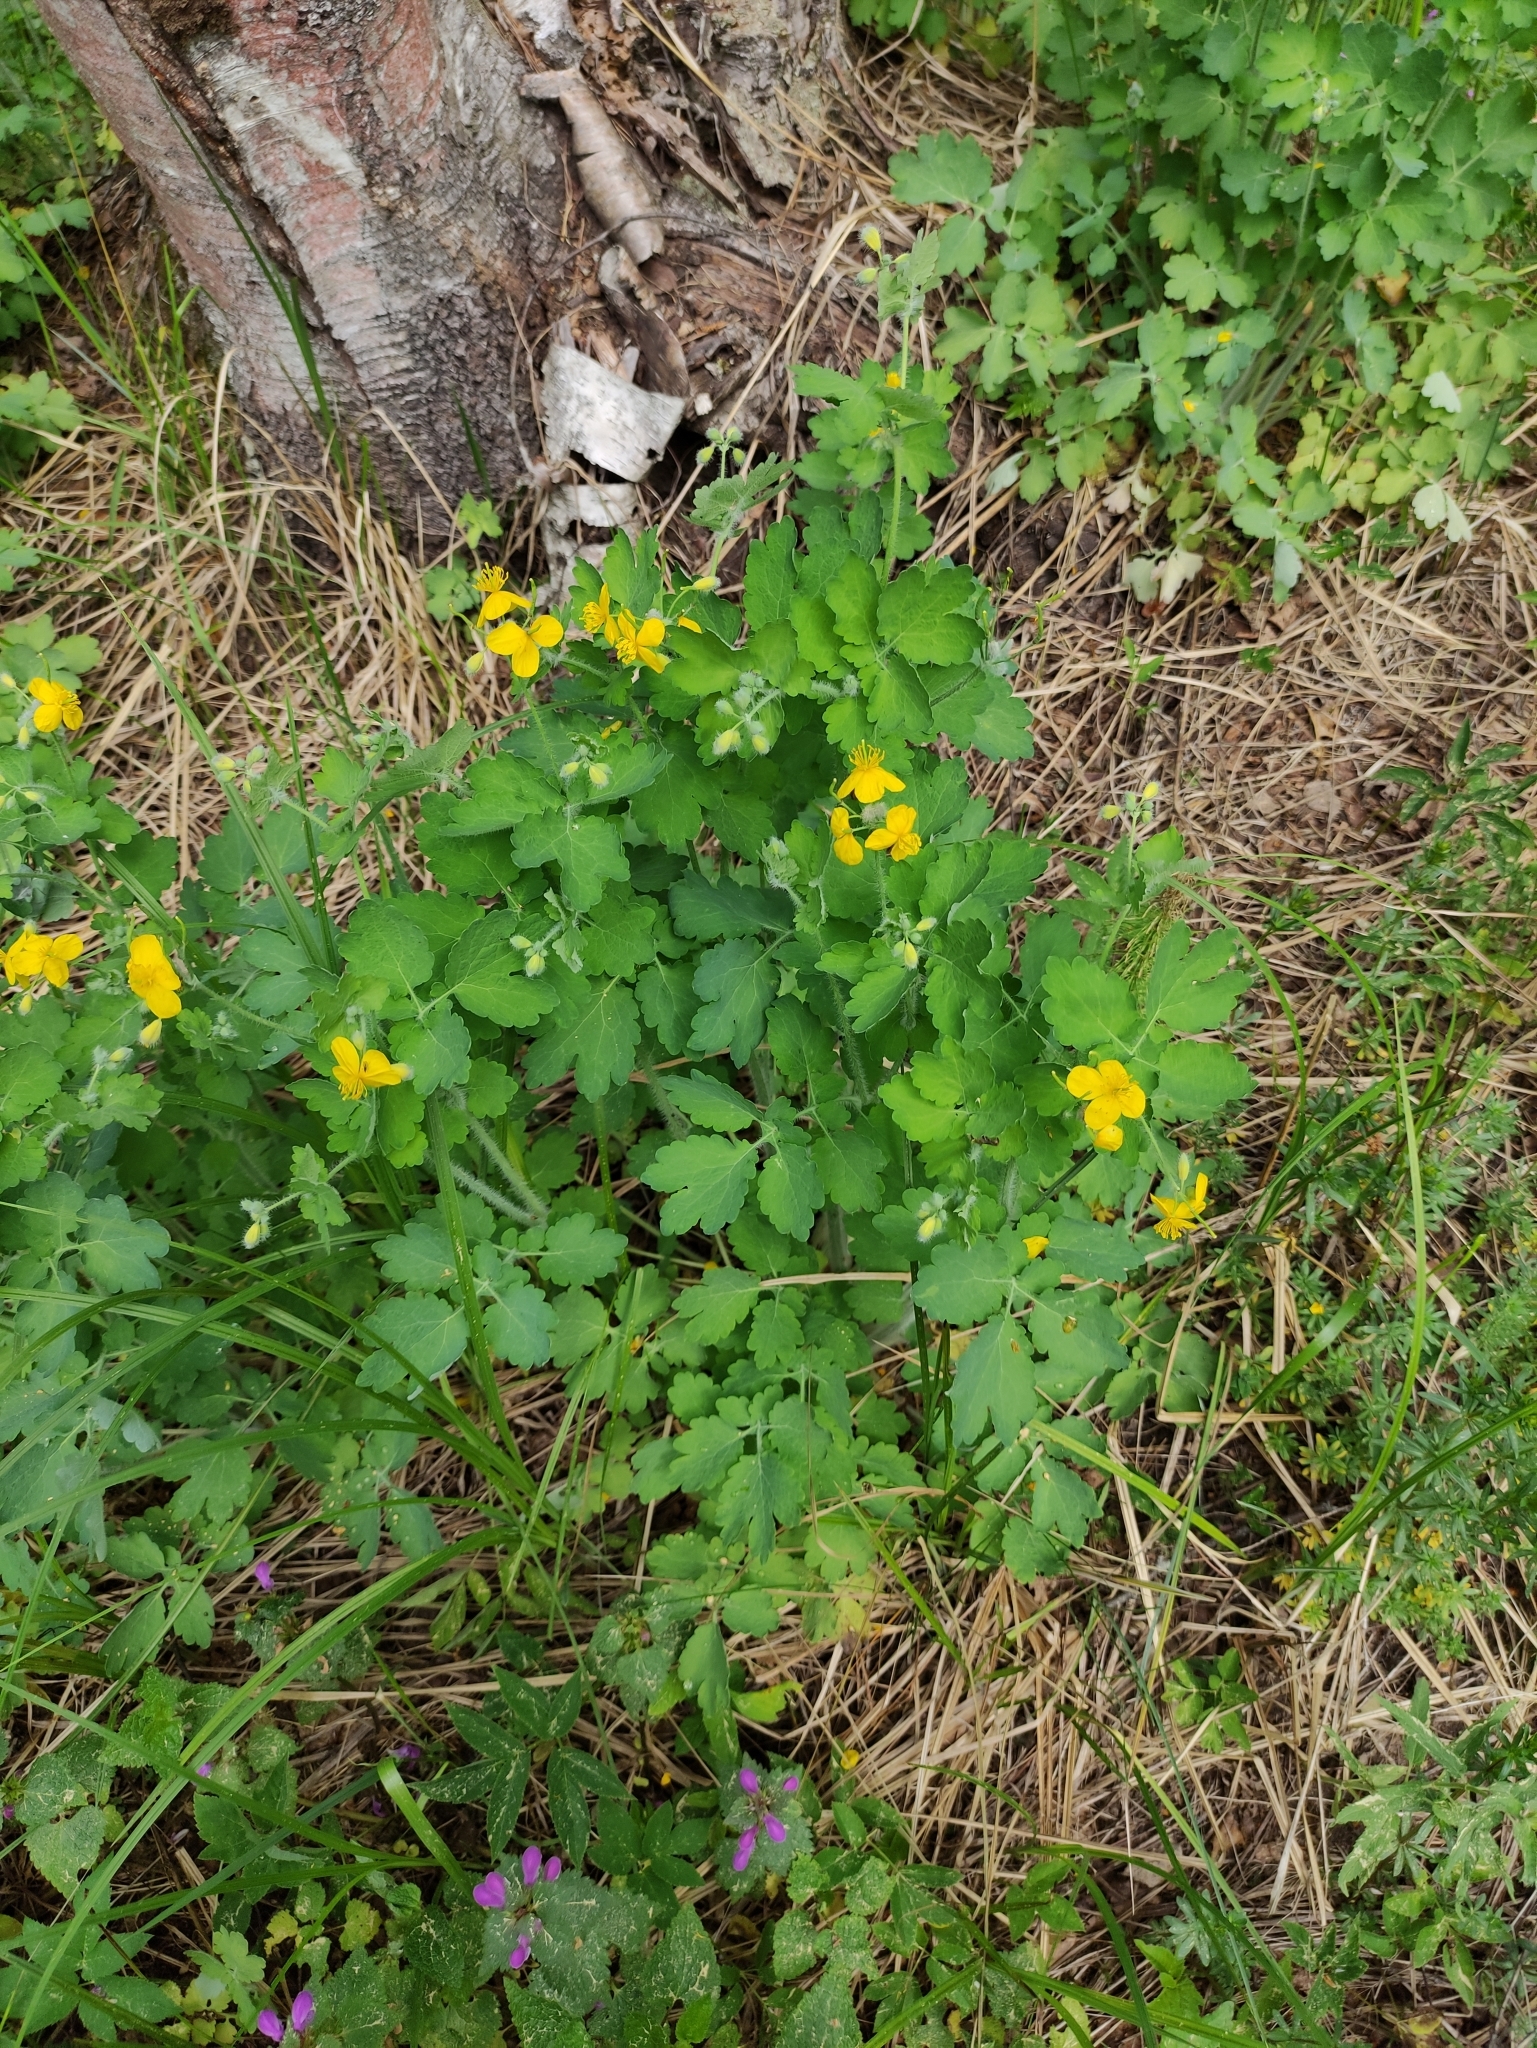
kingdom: Plantae
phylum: Tracheophyta
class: Magnoliopsida
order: Ranunculales
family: Papaveraceae
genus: Chelidonium
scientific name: Chelidonium majus
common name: Greater celandine
